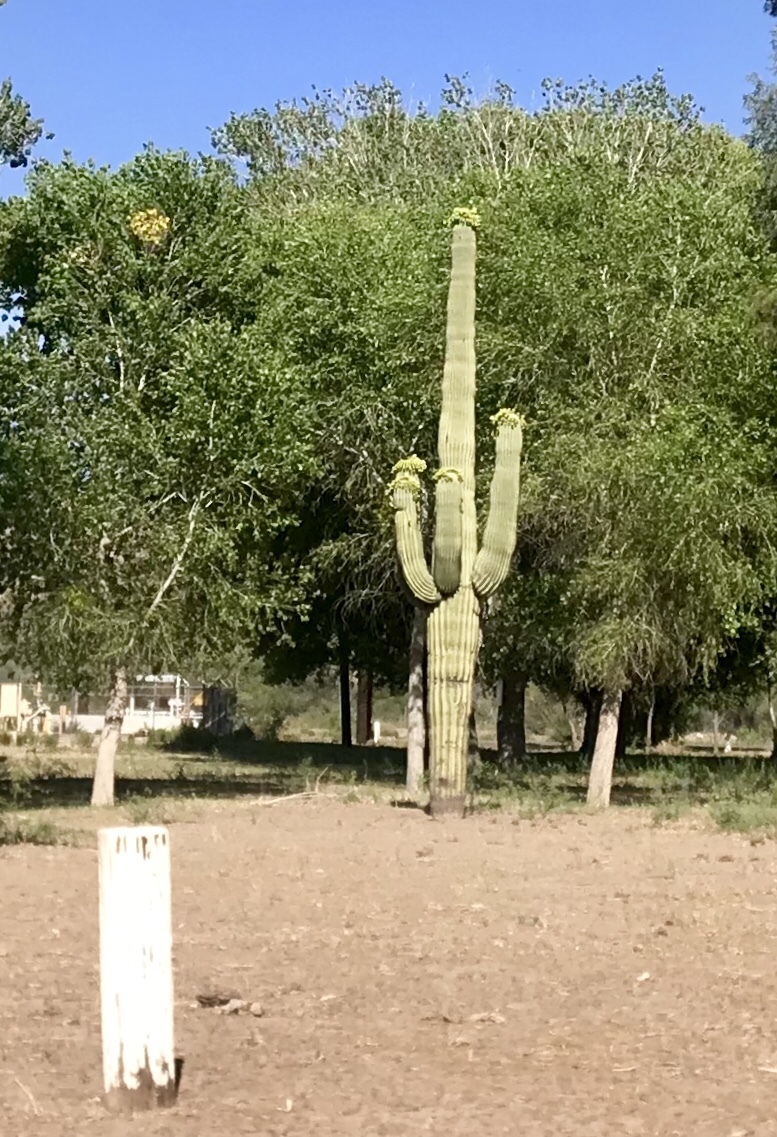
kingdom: Plantae
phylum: Tracheophyta
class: Magnoliopsida
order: Caryophyllales
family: Cactaceae
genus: Carnegiea
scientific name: Carnegiea gigantea
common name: Saguaro
